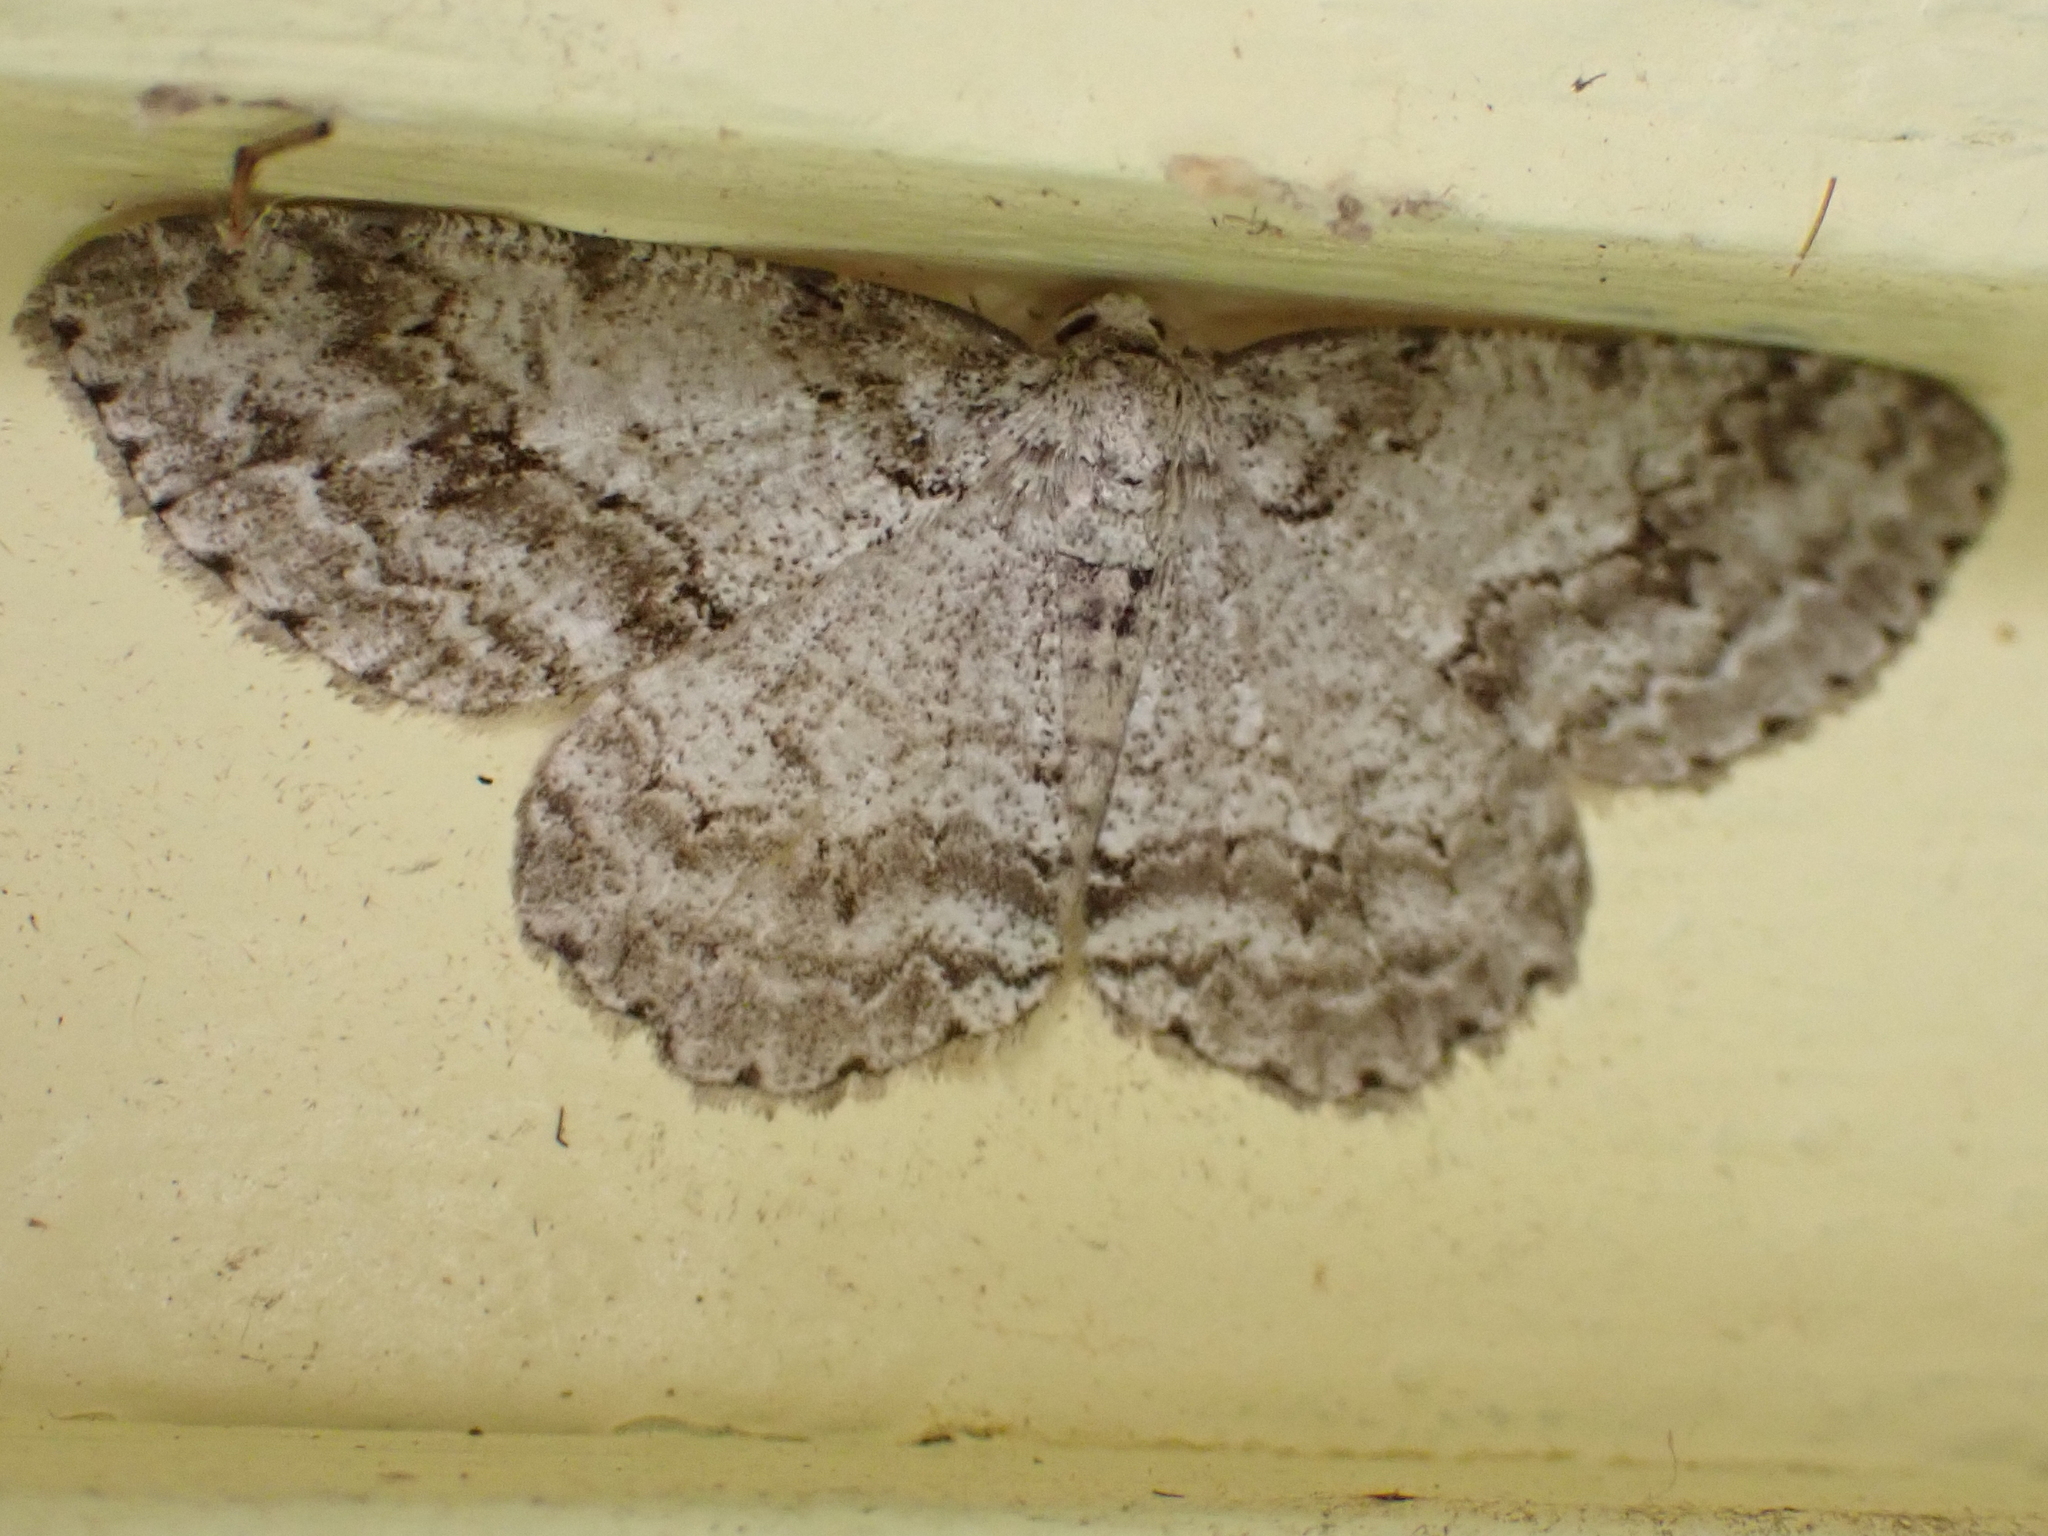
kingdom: Animalia
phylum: Arthropoda
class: Insecta
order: Lepidoptera
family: Geometridae
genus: Ectropis
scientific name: Ectropis crepuscularia
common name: Engrailed
